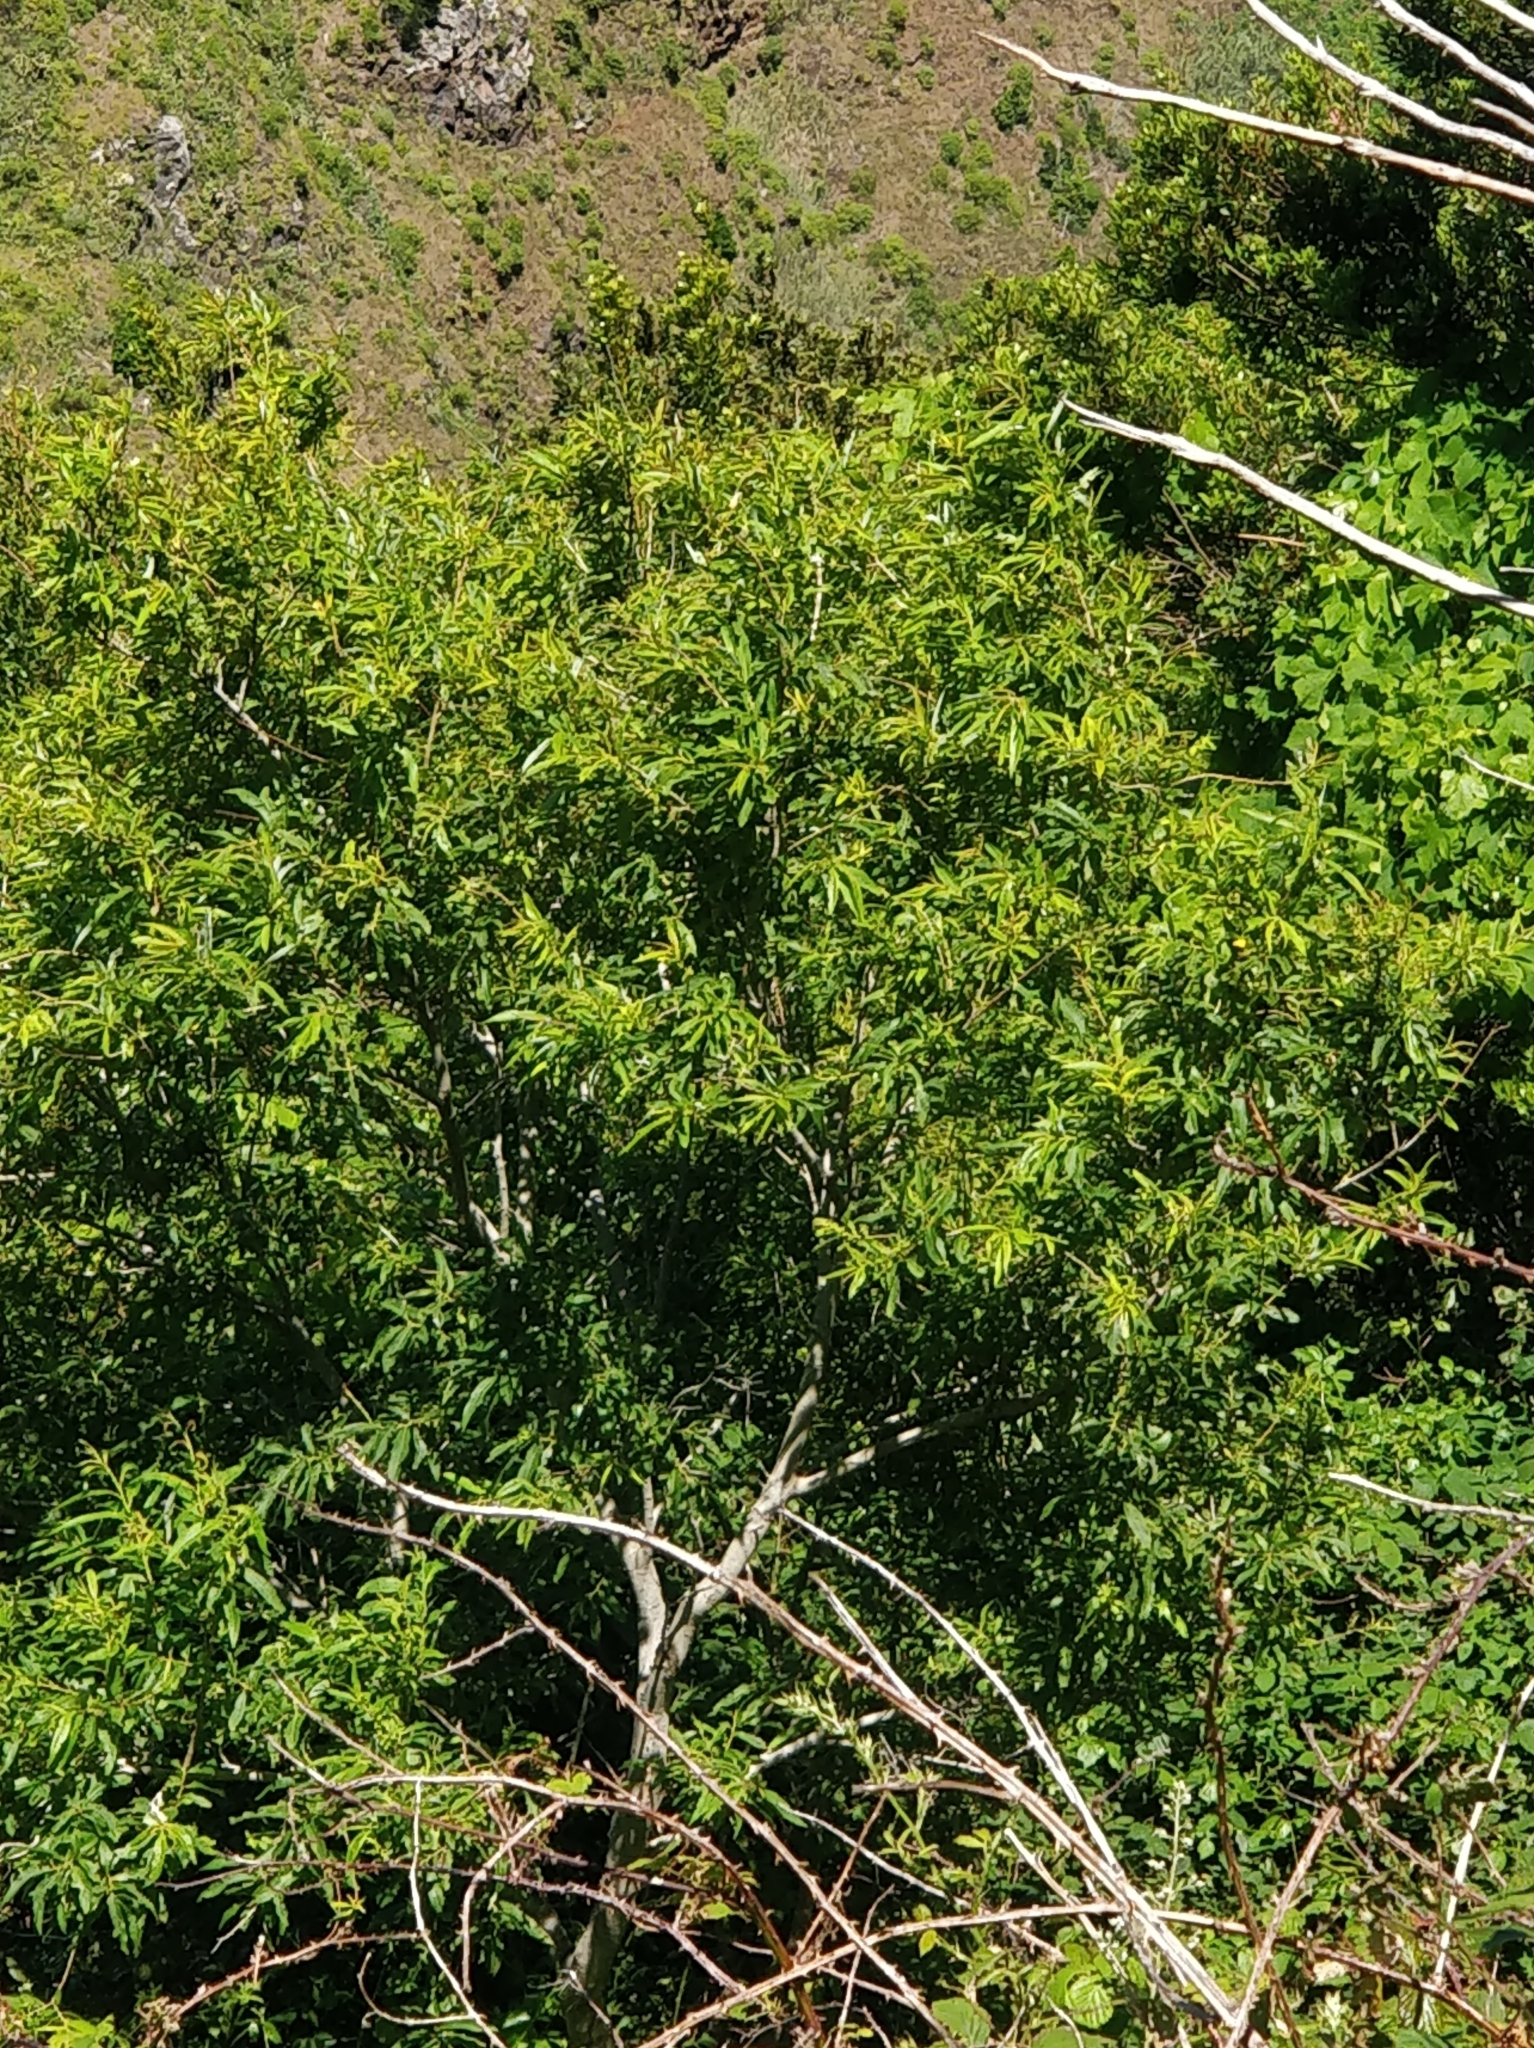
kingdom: Plantae
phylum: Tracheophyta
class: Magnoliopsida
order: Malpighiales
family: Salicaceae
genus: Salix
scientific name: Salix canariensis
